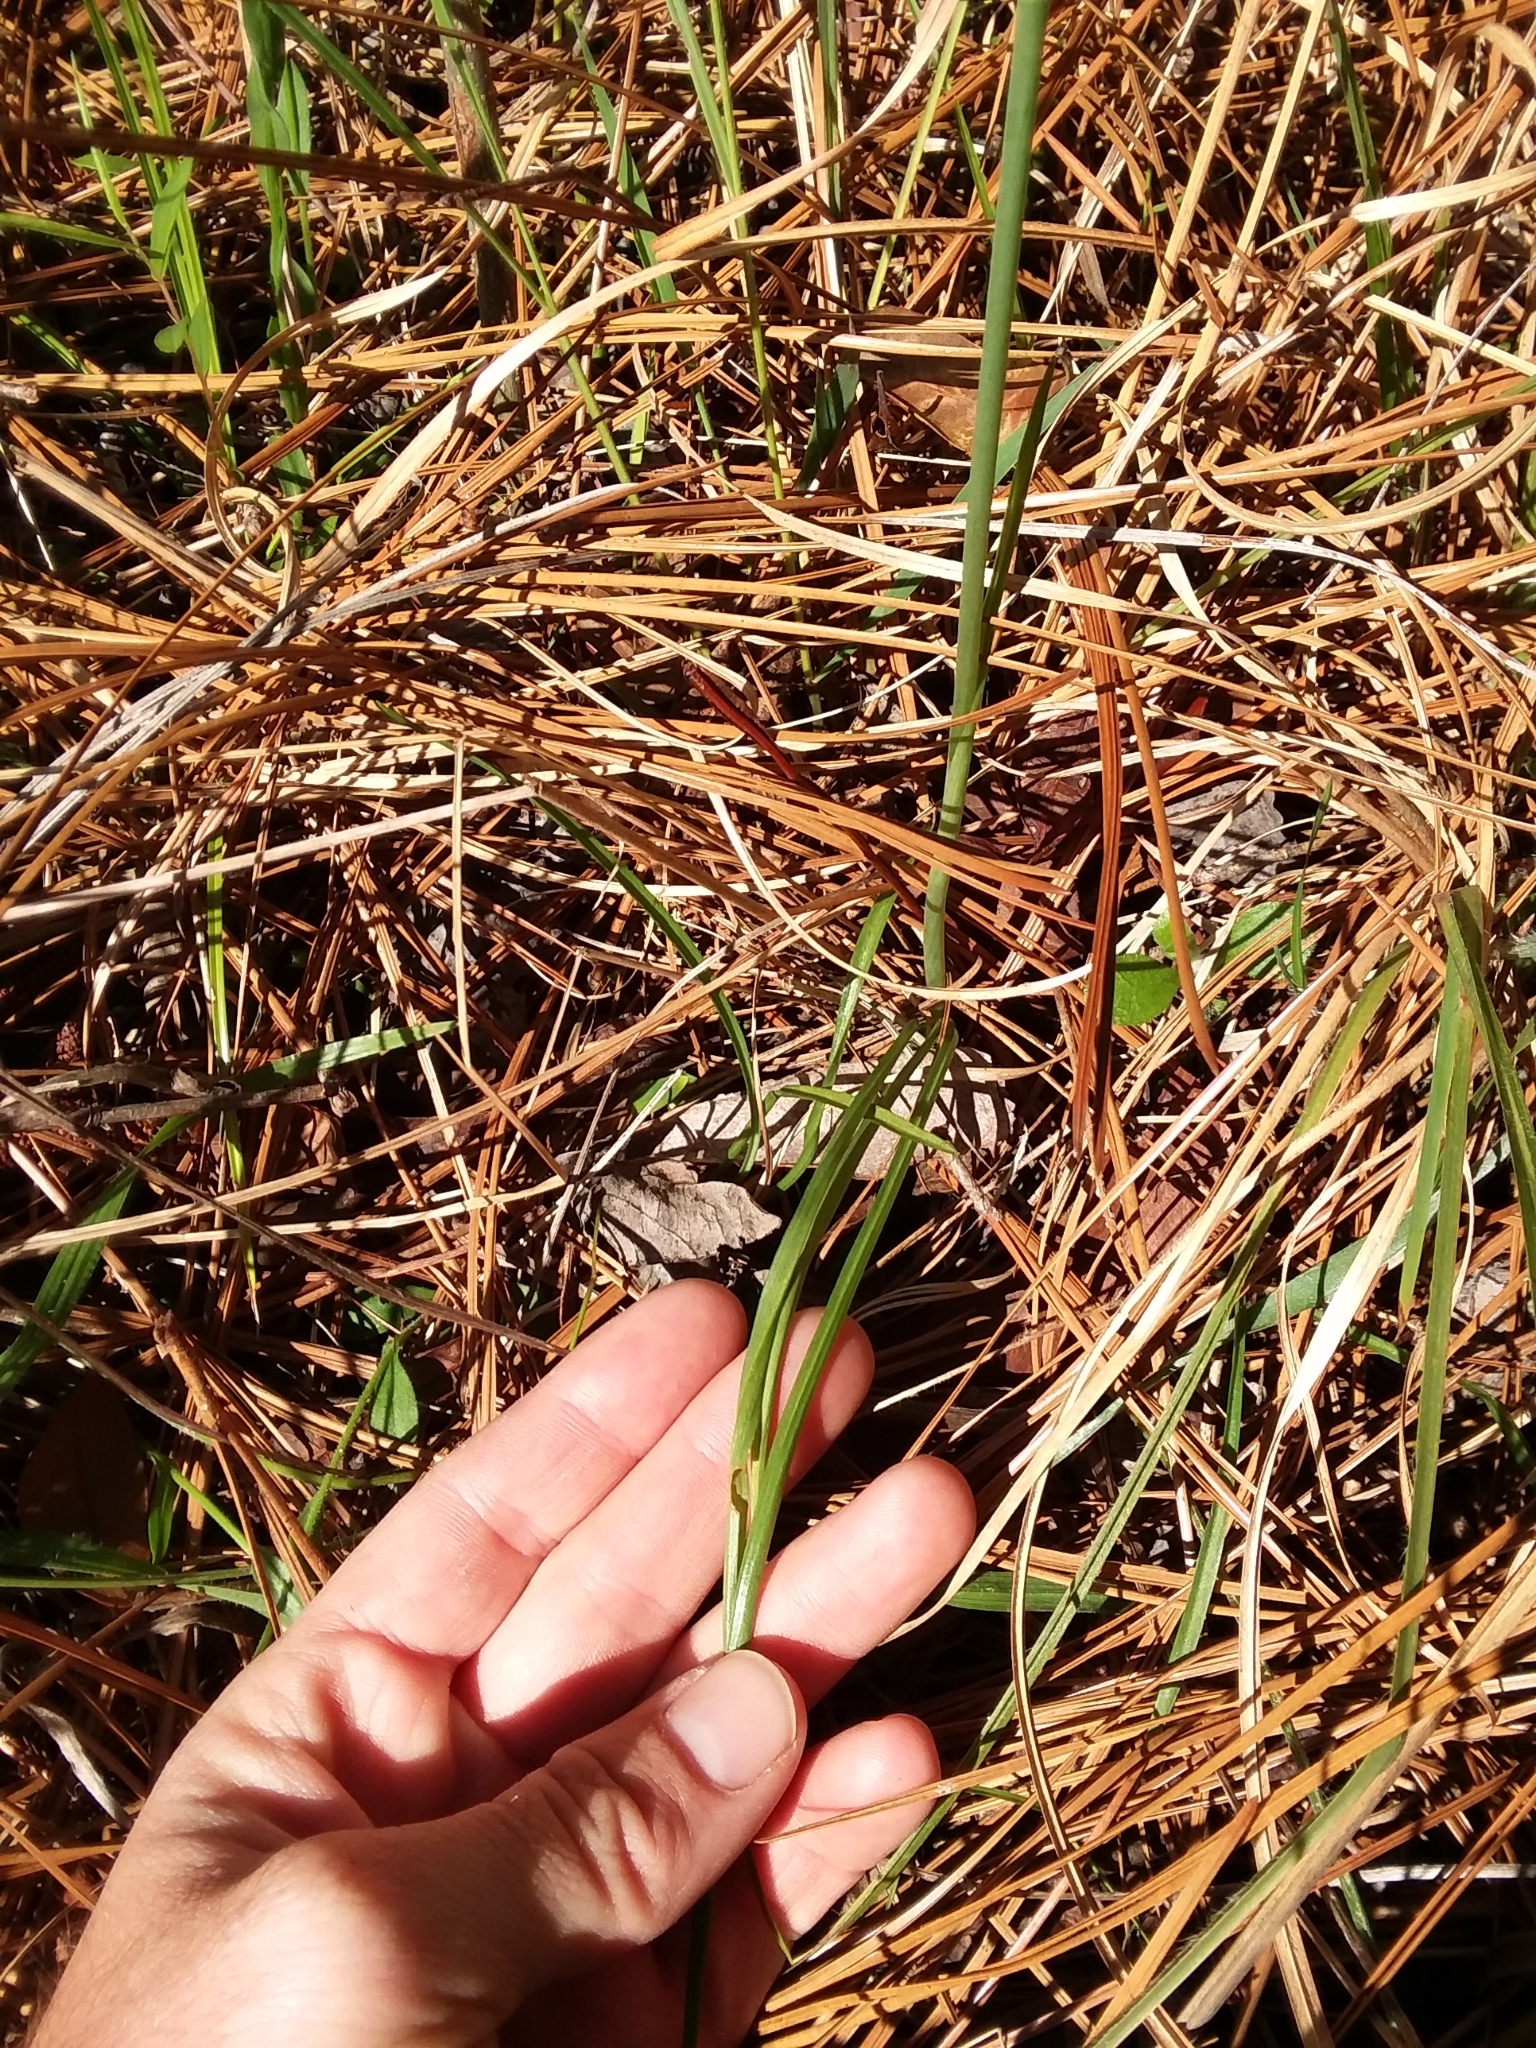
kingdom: Plantae
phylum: Tracheophyta
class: Liliopsida
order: Asparagales
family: Orchidaceae
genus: Spiranthes
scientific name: Spiranthes sylvatica
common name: Woodland lady's tresses
